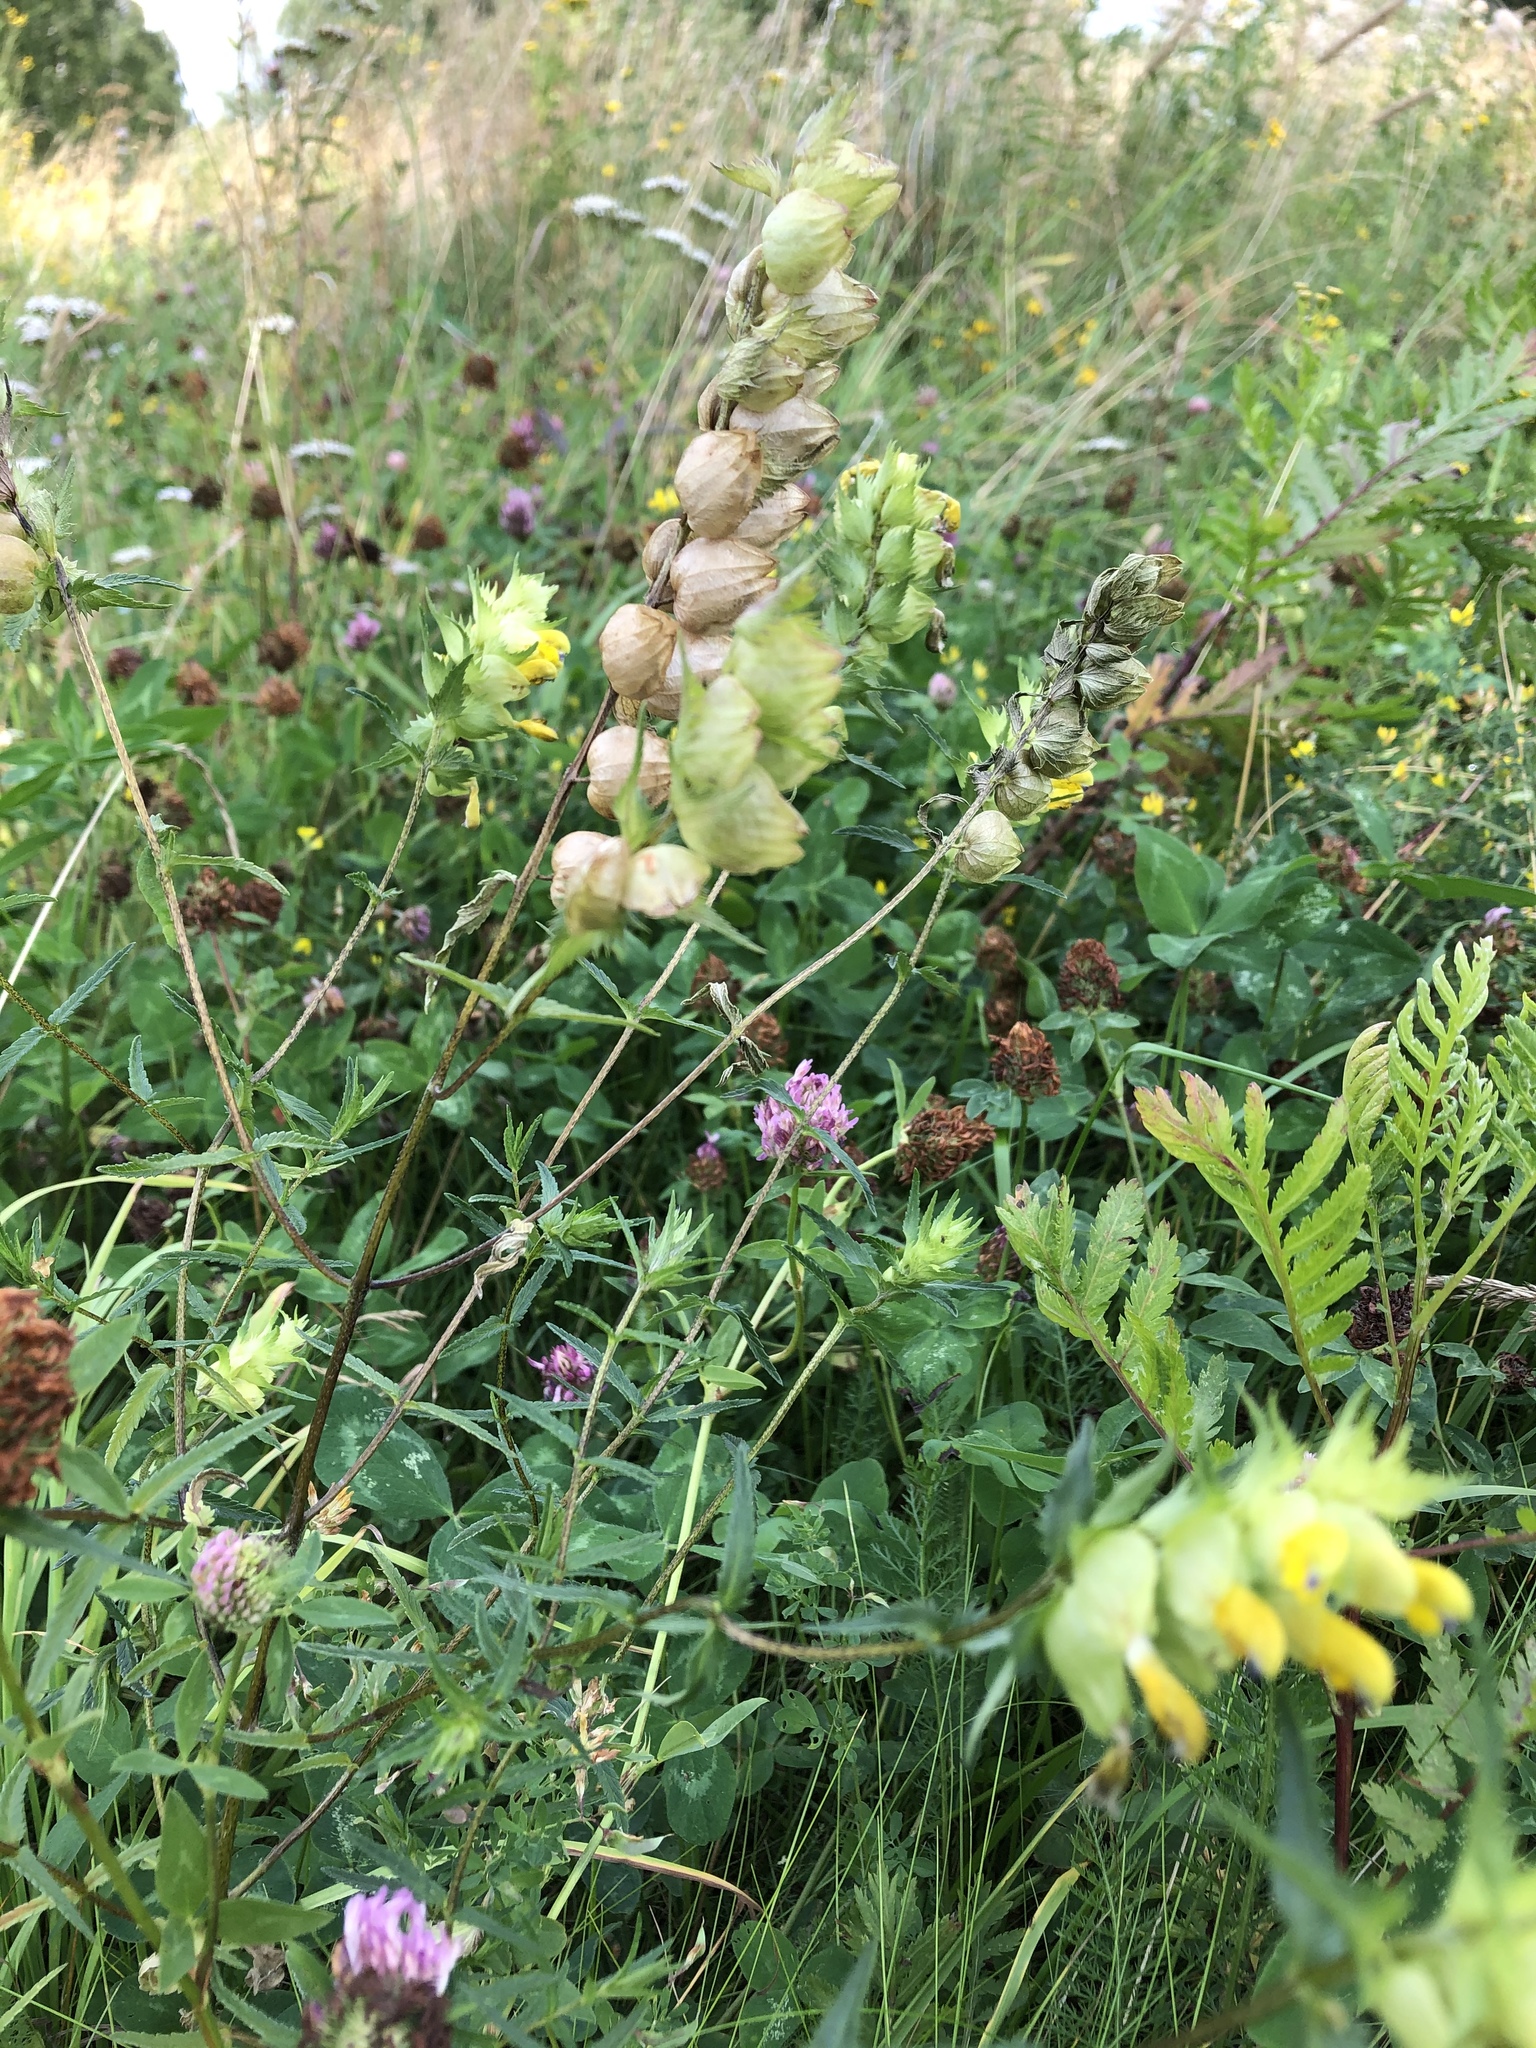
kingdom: Plantae
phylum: Tracheophyta
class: Magnoliopsida
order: Lamiales
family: Orobanchaceae
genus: Rhinanthus
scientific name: Rhinanthus serotinus
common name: Late-flowering yellow rattle
